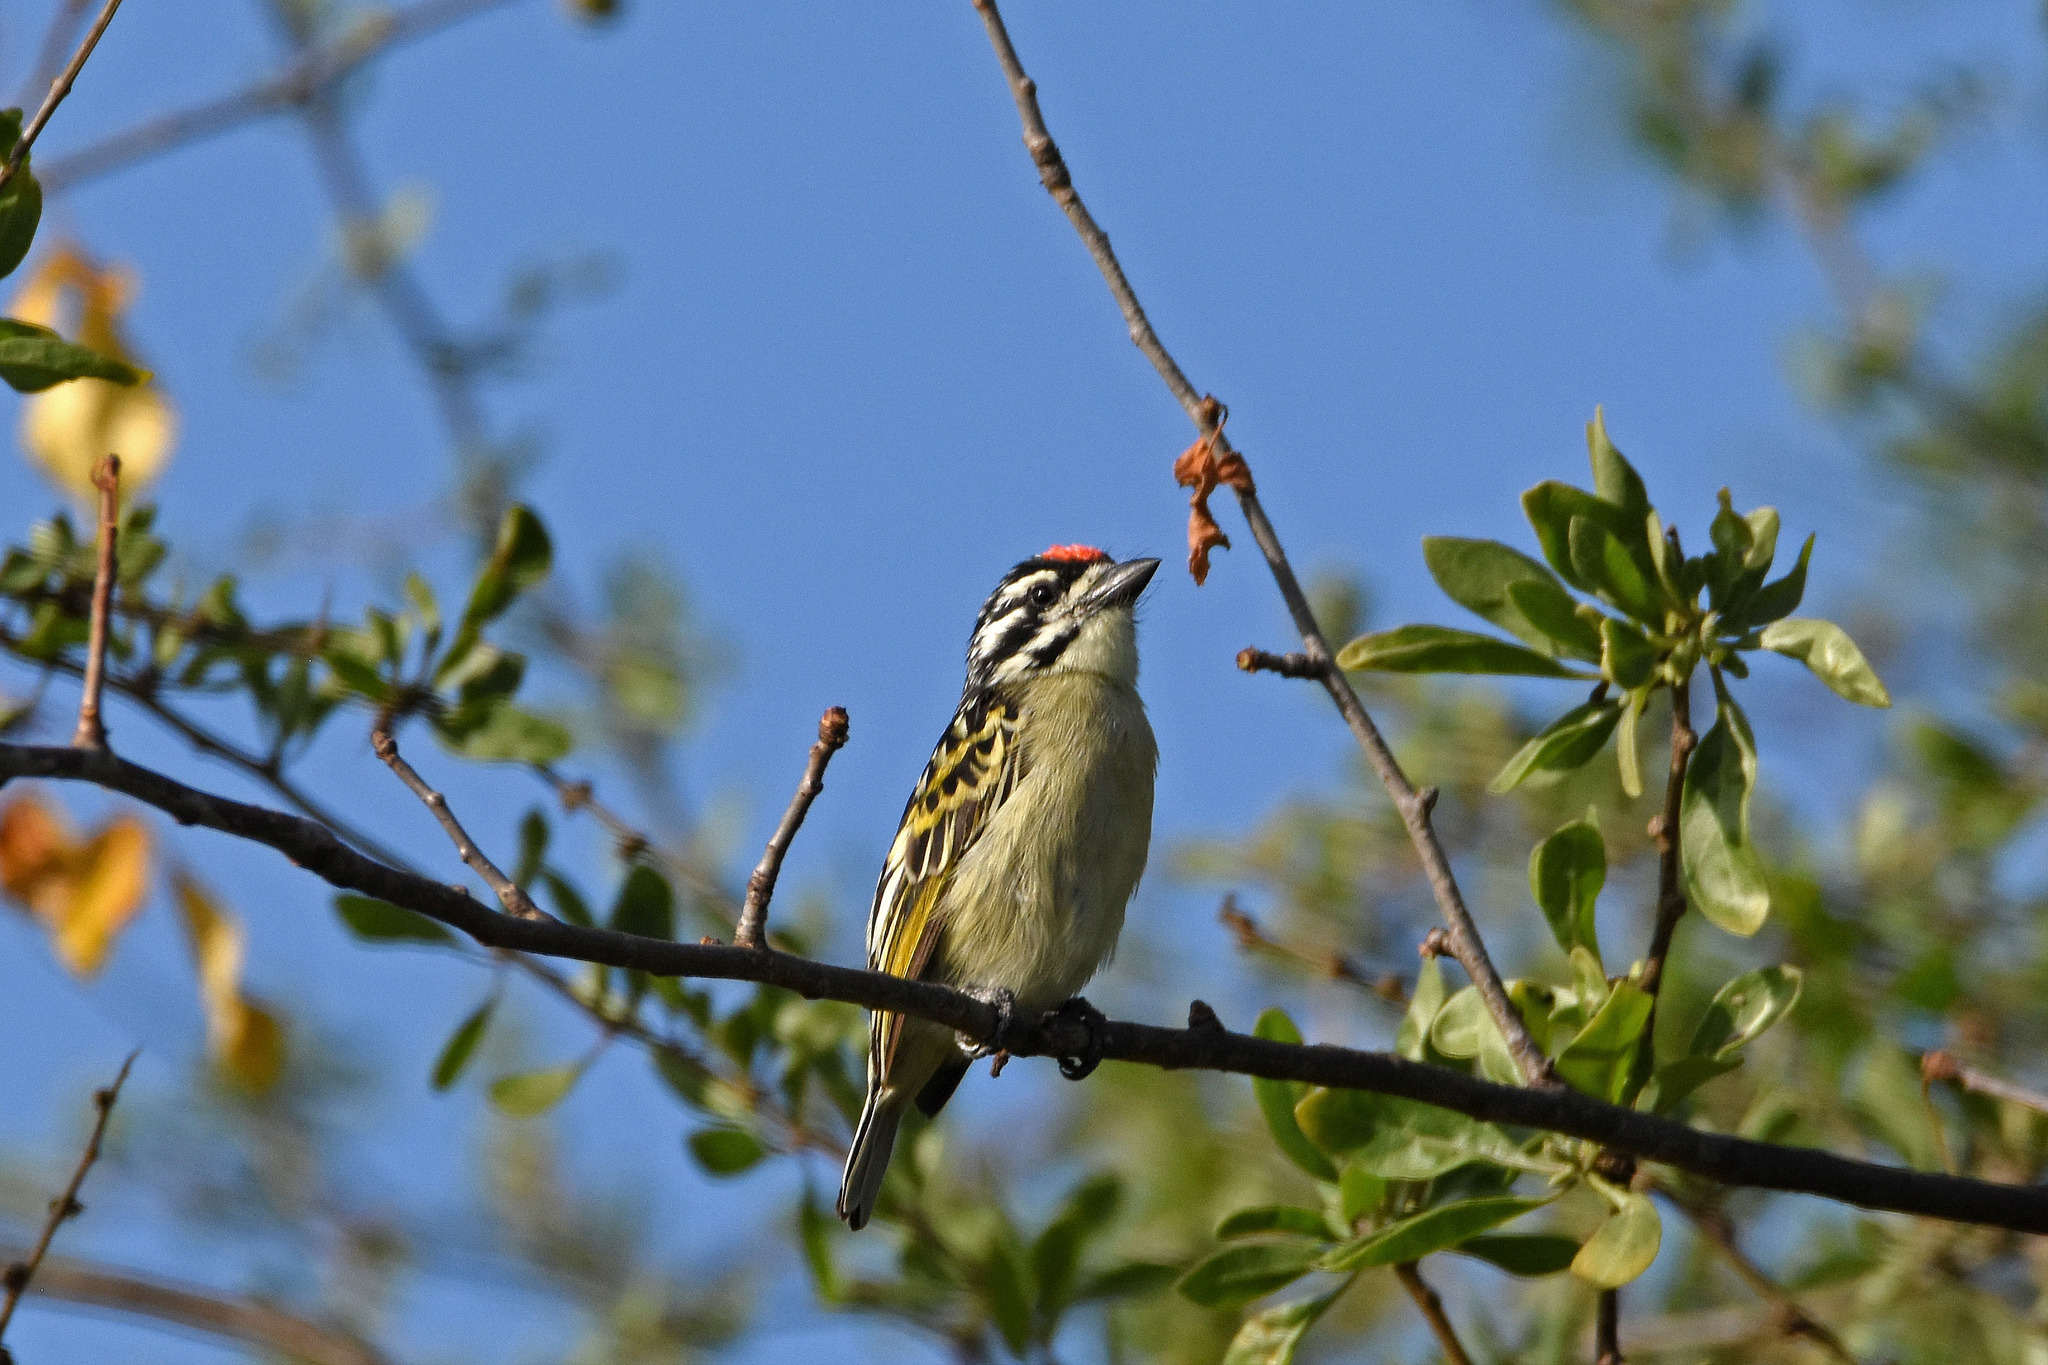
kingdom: Animalia
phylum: Chordata
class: Aves
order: Piciformes
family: Lybiidae
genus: Pogoniulus
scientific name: Pogoniulus pusillus
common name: Red-fronted tinkerbird
